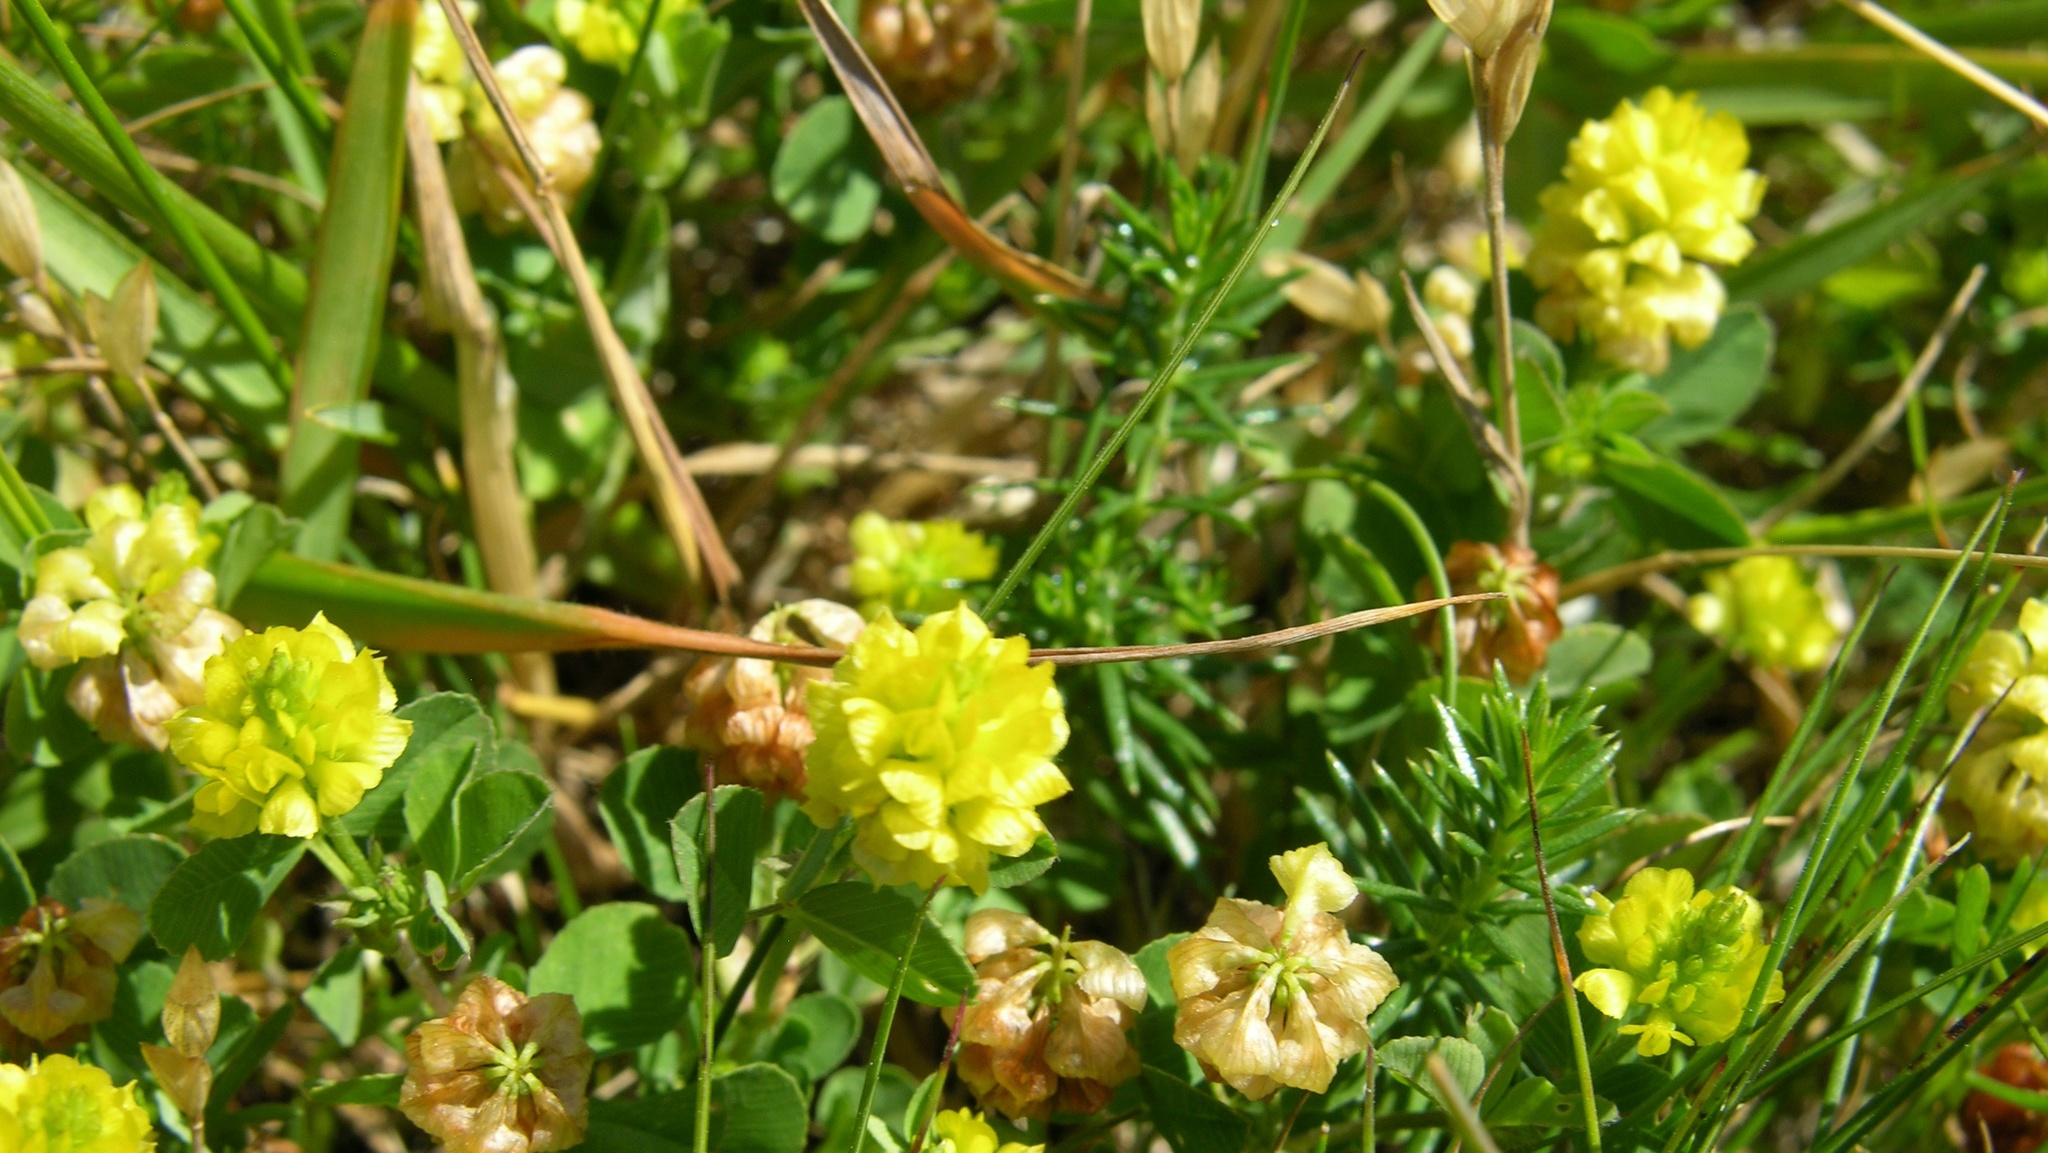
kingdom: Plantae
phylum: Tracheophyta
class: Magnoliopsida
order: Fabales
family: Fabaceae
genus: Trifolium
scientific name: Trifolium campestre
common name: Field clover
